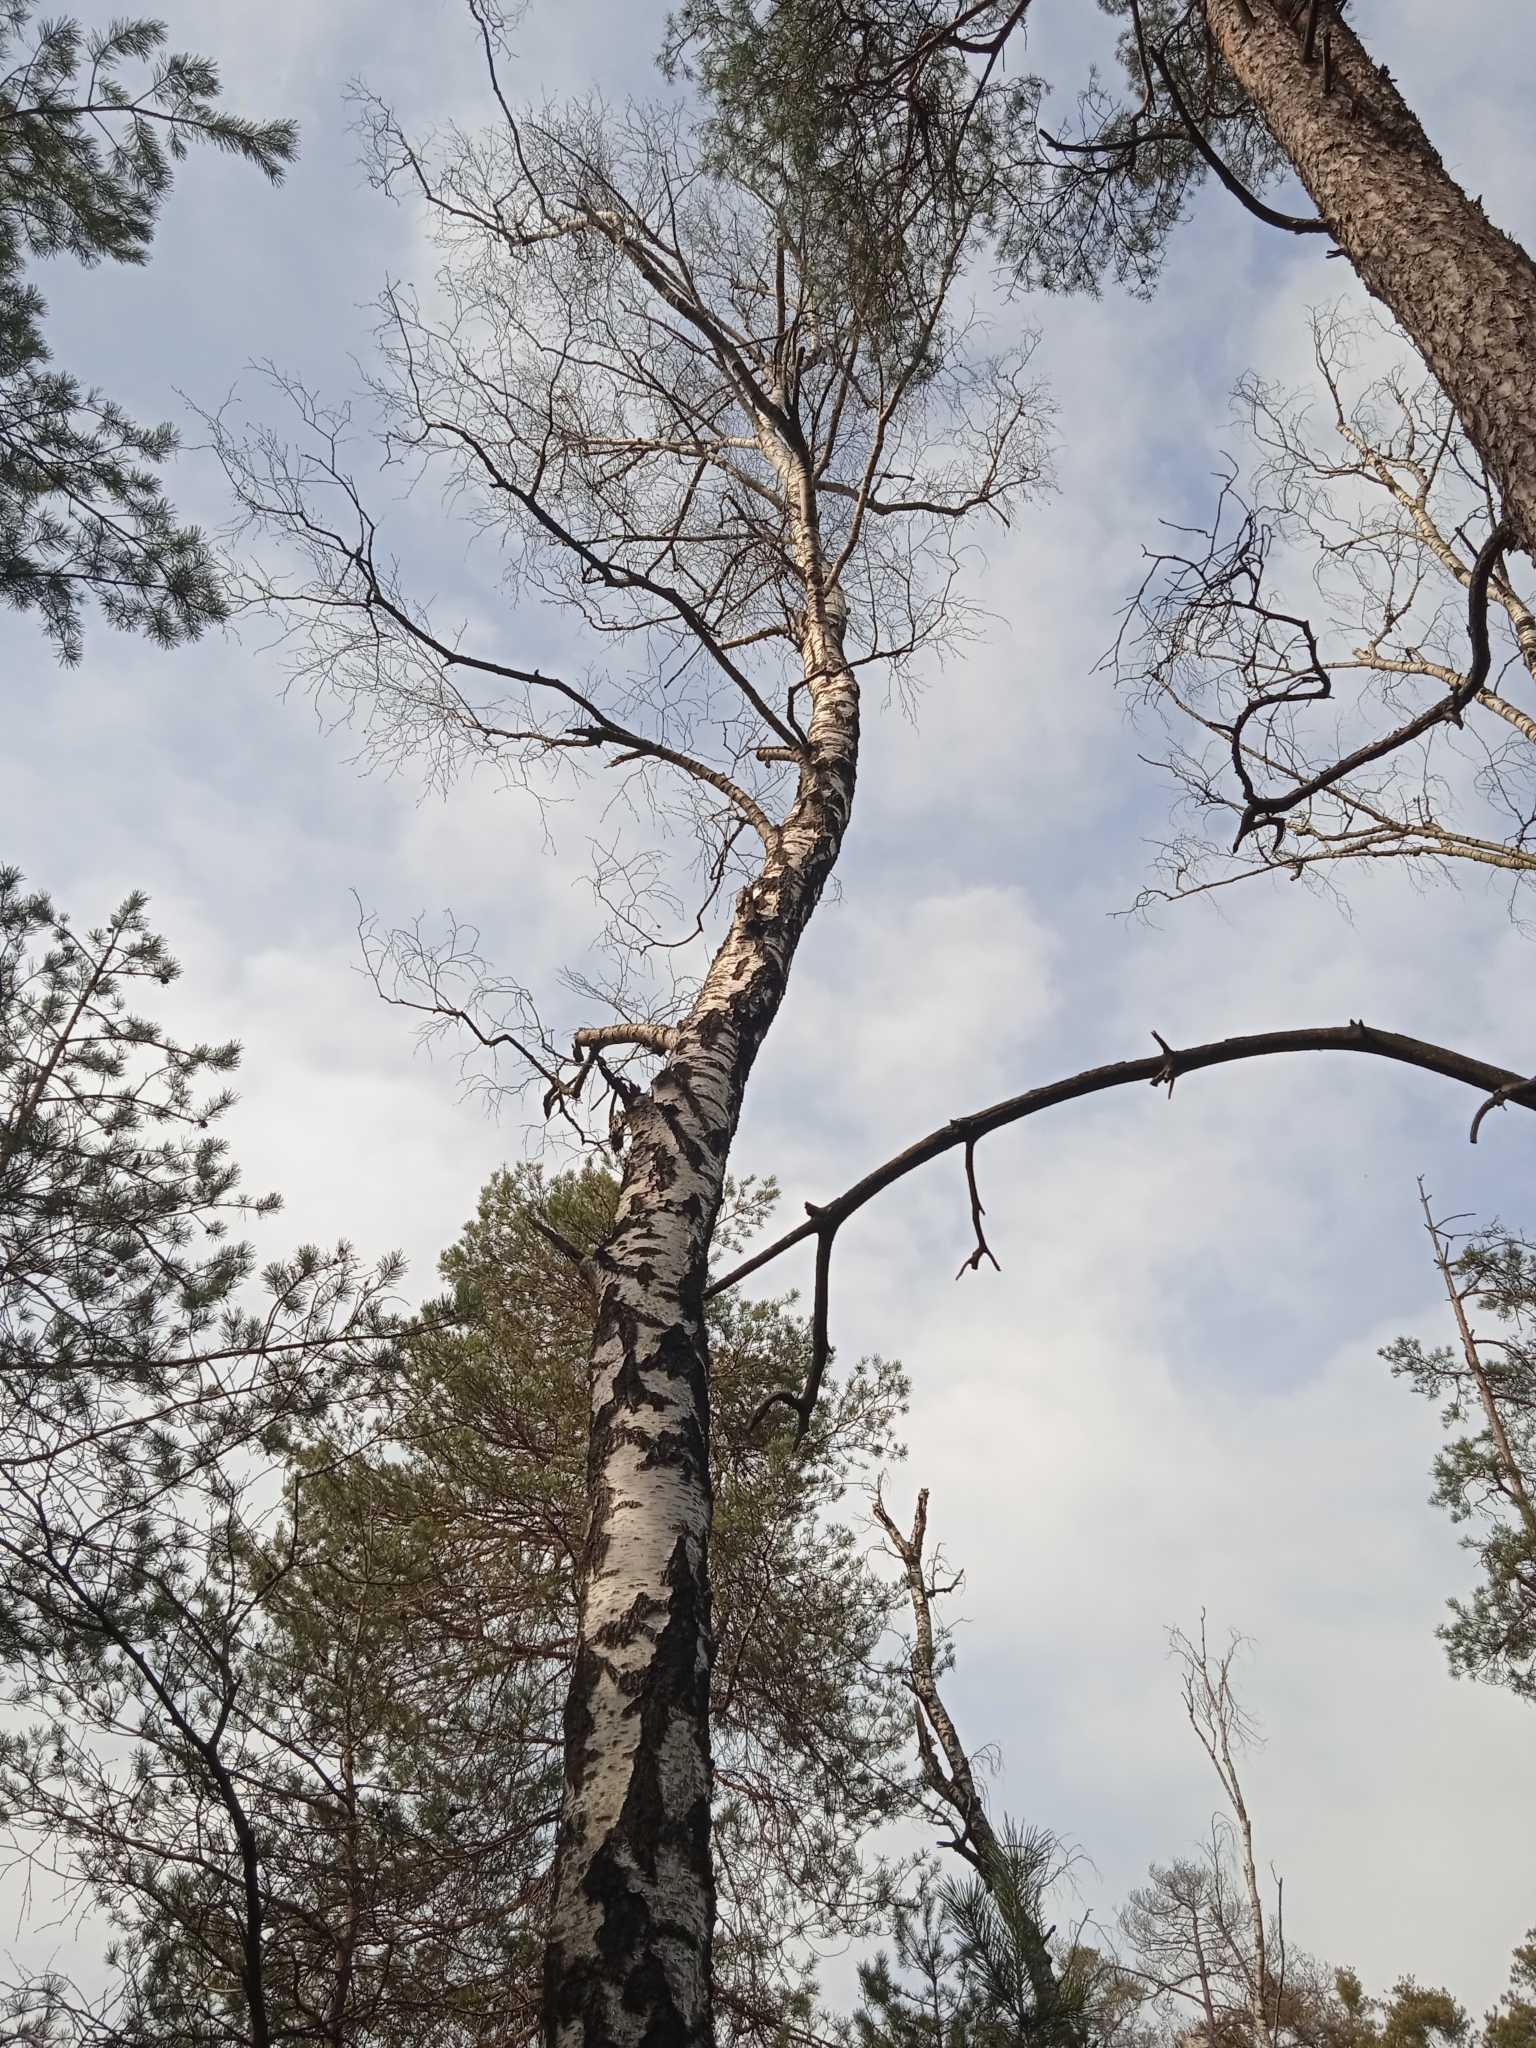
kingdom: Plantae
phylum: Tracheophyta
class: Magnoliopsida
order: Fagales
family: Betulaceae
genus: Betula
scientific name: Betula pendula
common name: Silver birch
